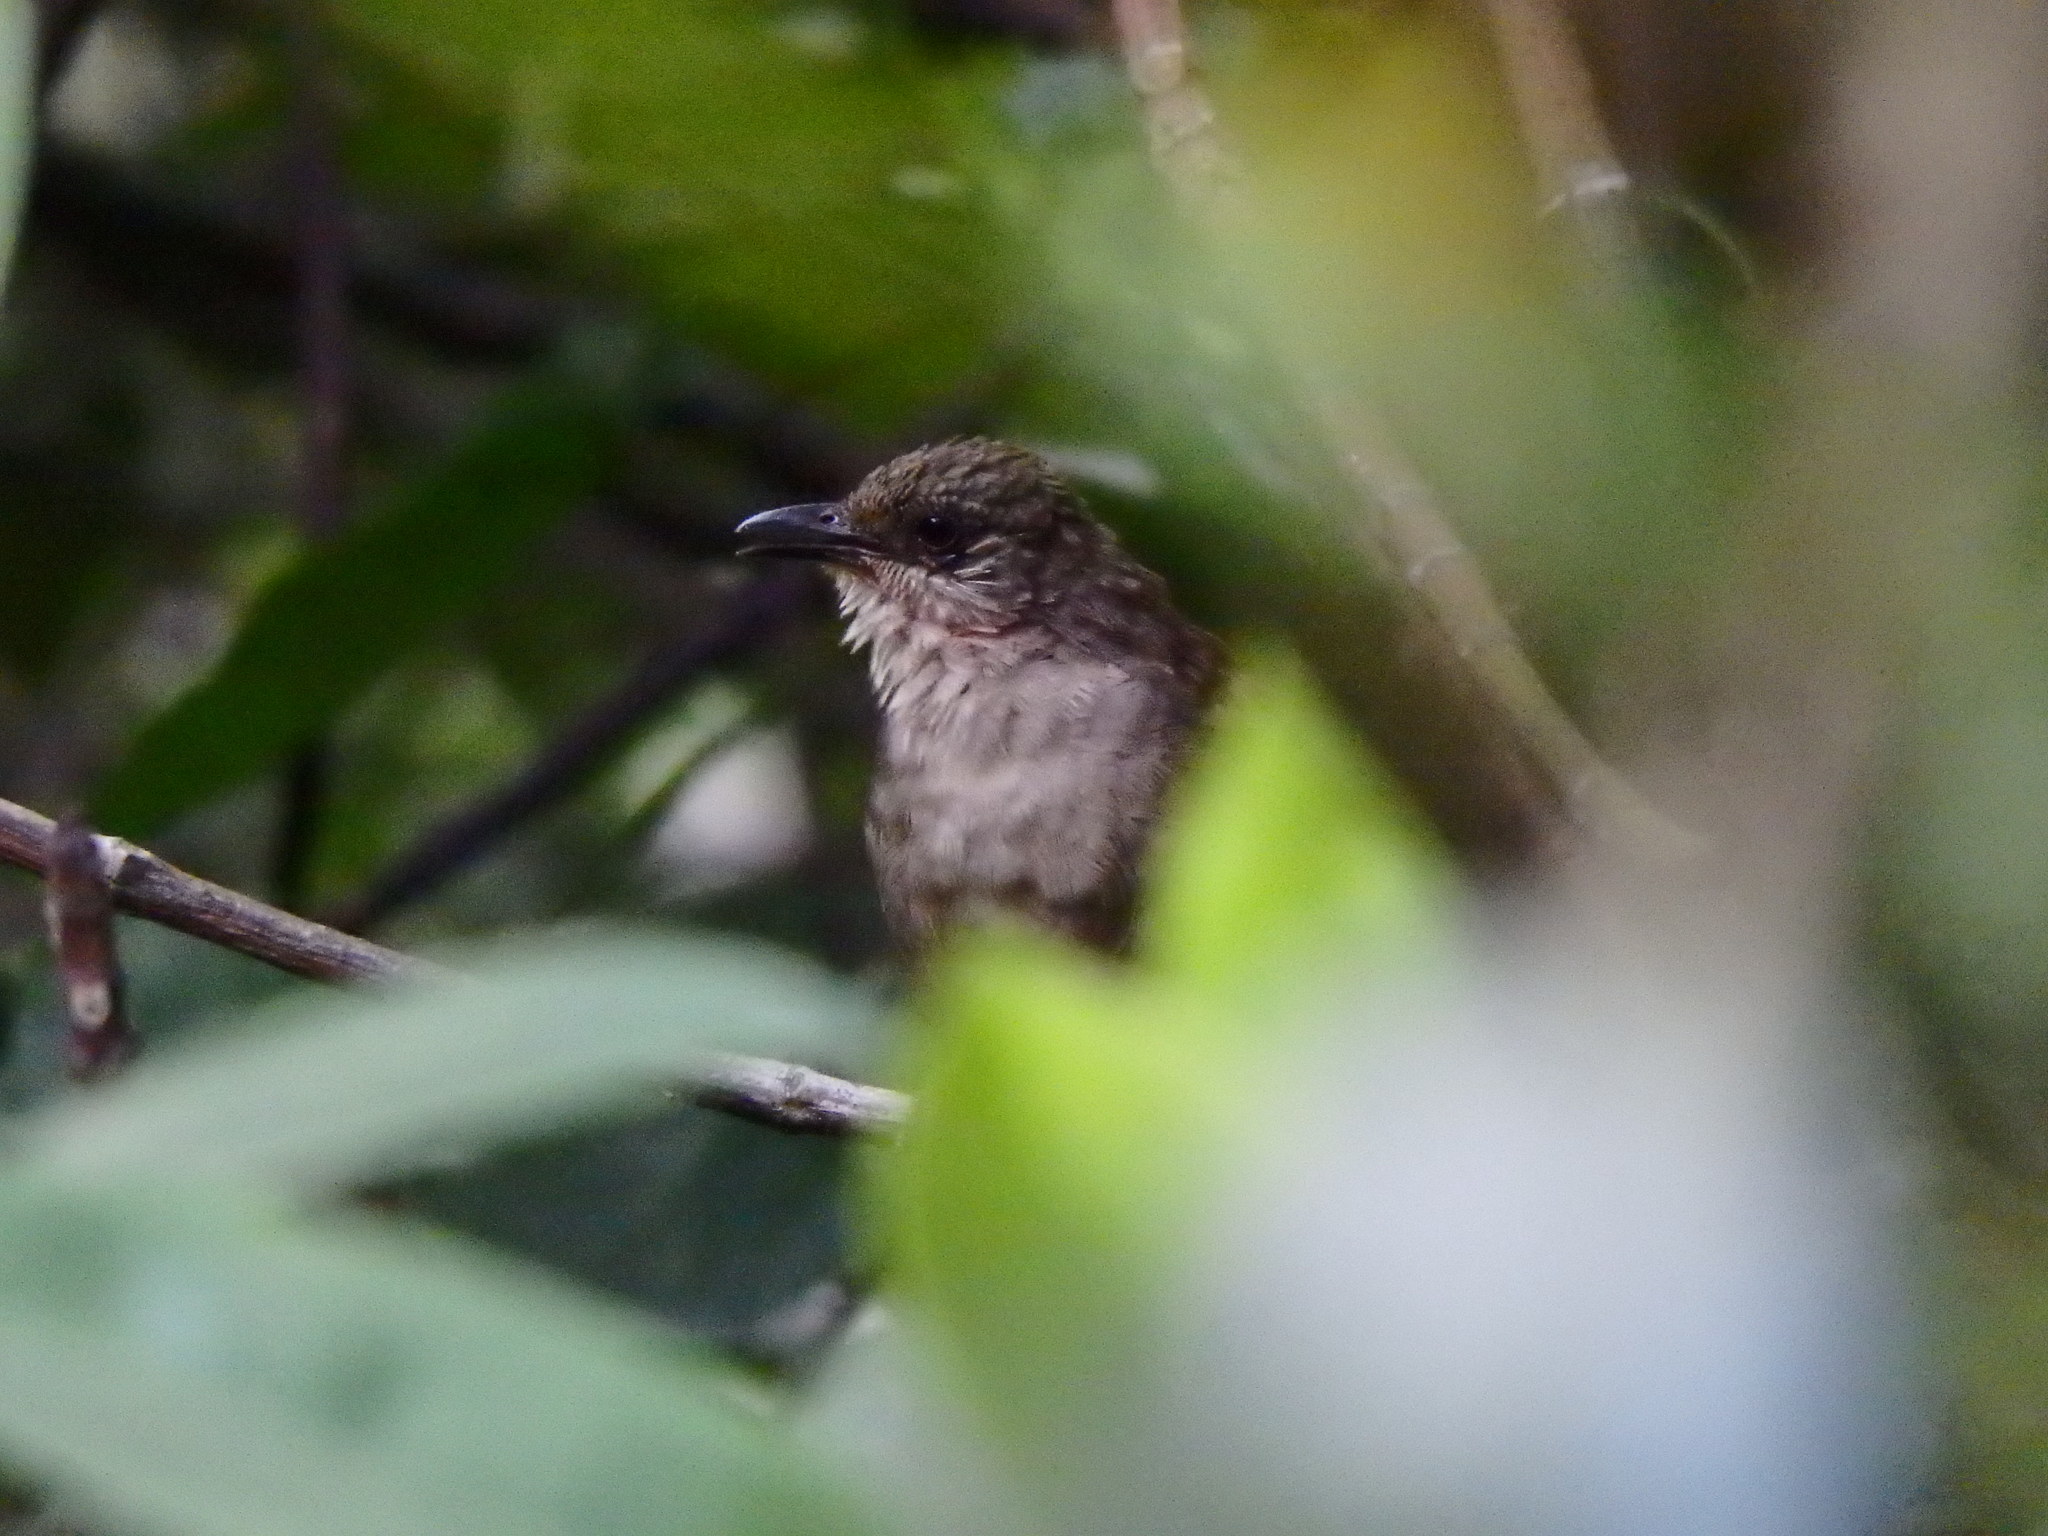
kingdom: Animalia
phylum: Chordata
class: Aves
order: Passeriformes
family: Pycnonotidae
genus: Pycnonotus
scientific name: Pycnonotus plumosus
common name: Olive-winged bulbul
